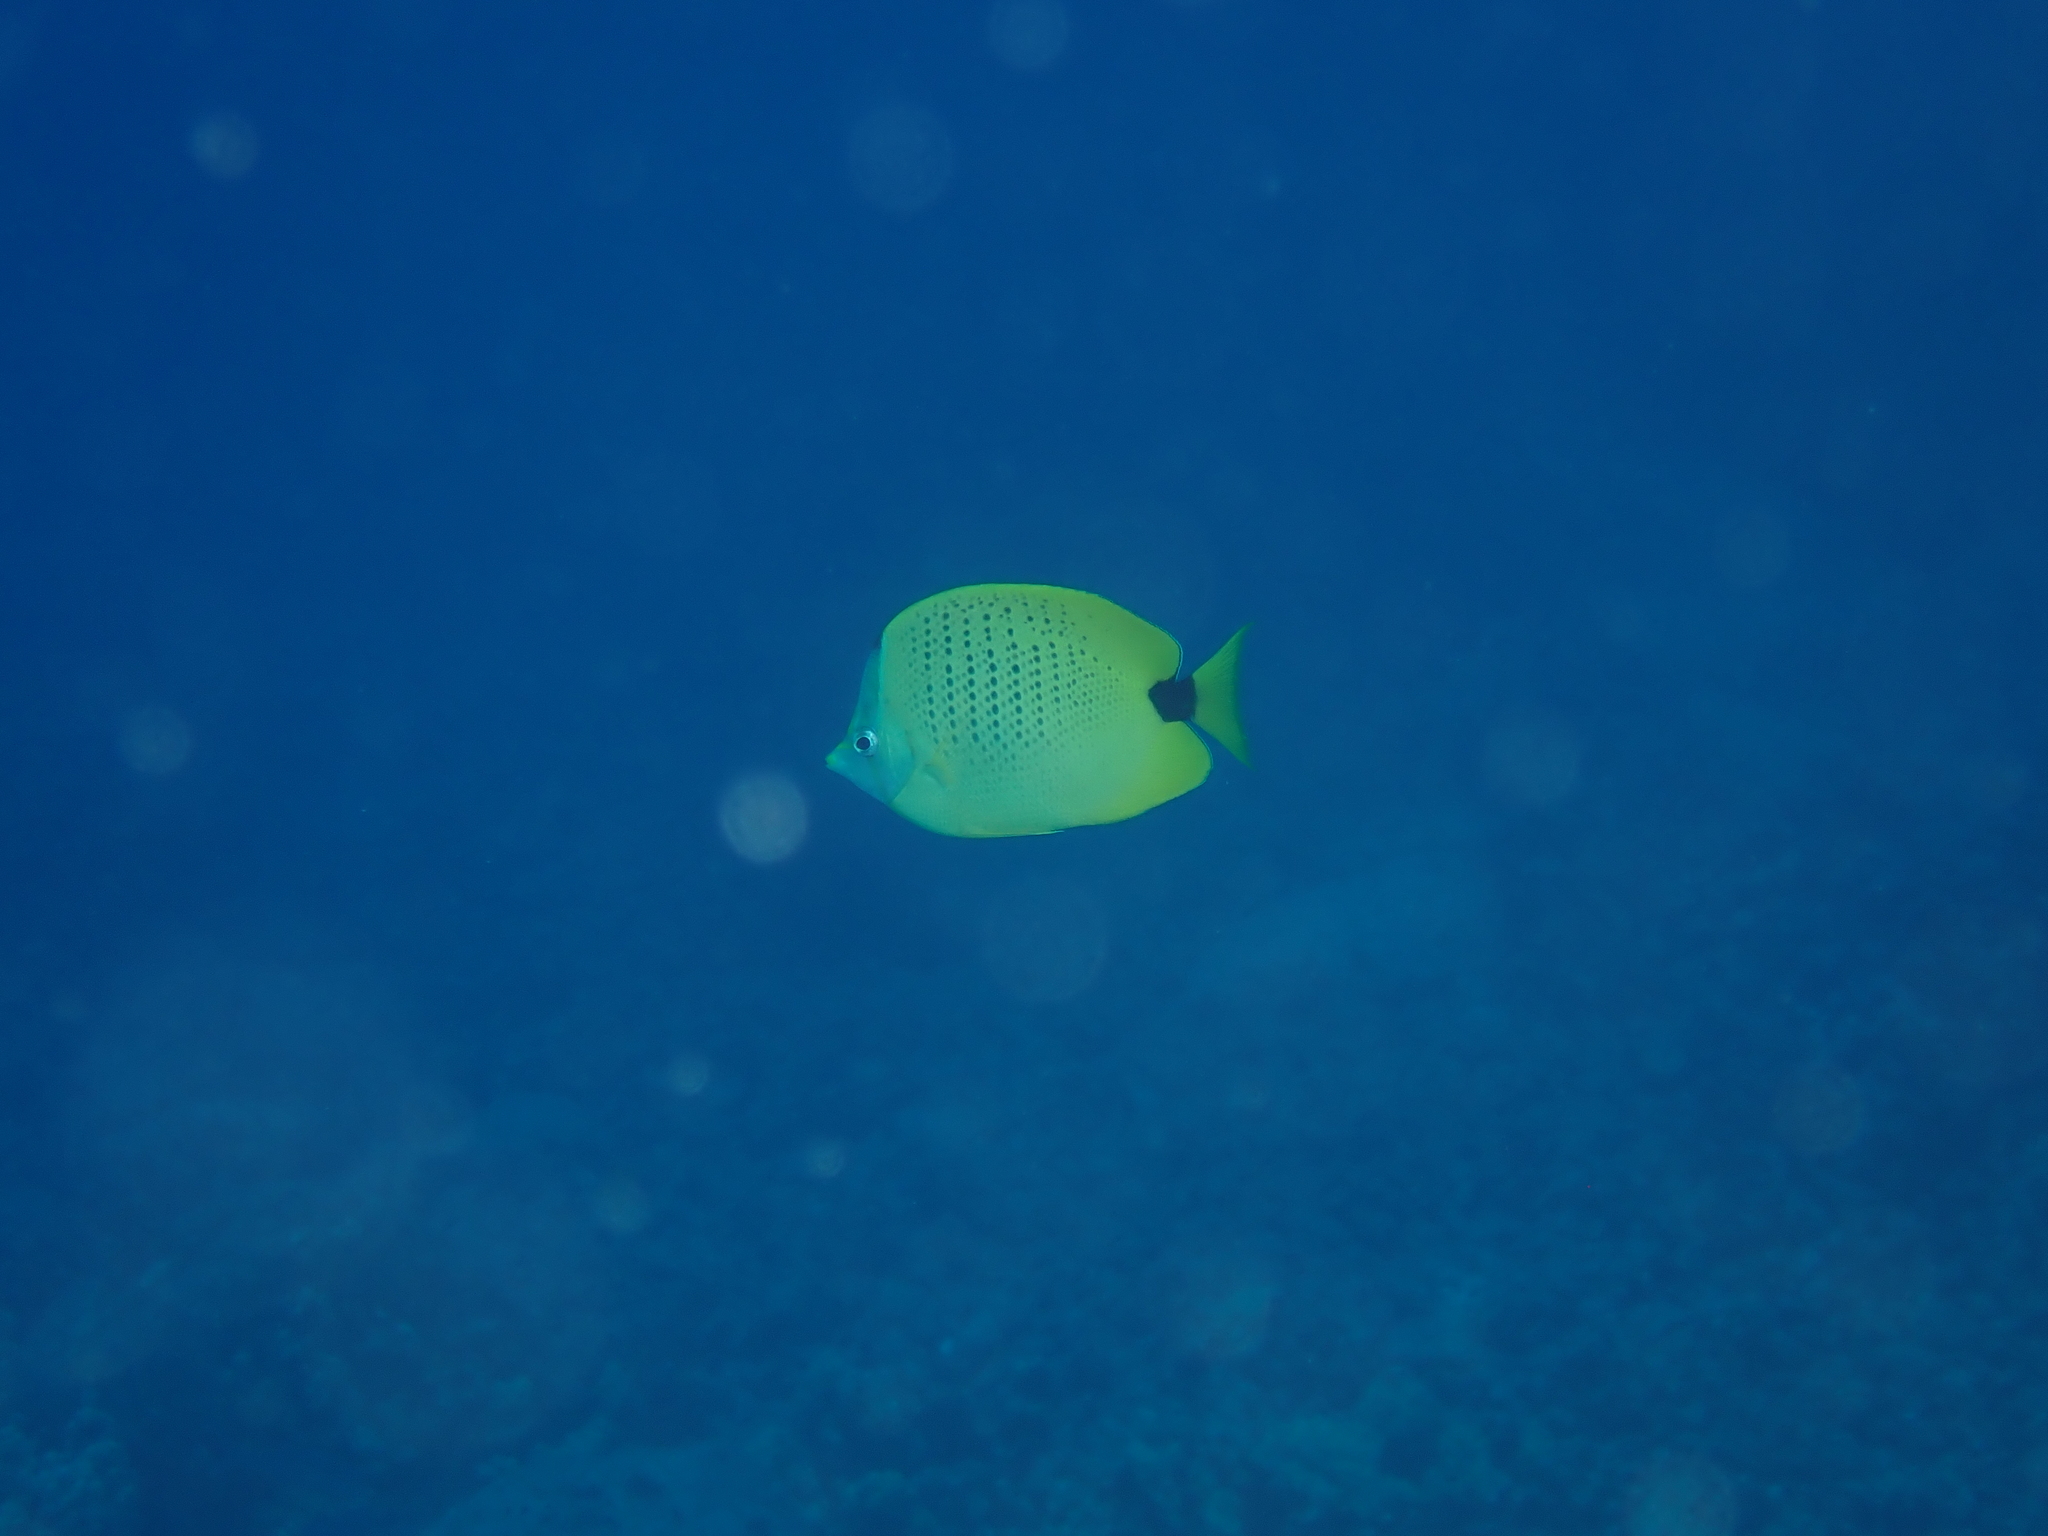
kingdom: Animalia
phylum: Chordata
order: Perciformes
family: Chaetodontidae
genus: Chaetodon
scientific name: Chaetodon miliaris
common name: Lemon butterflyfish
